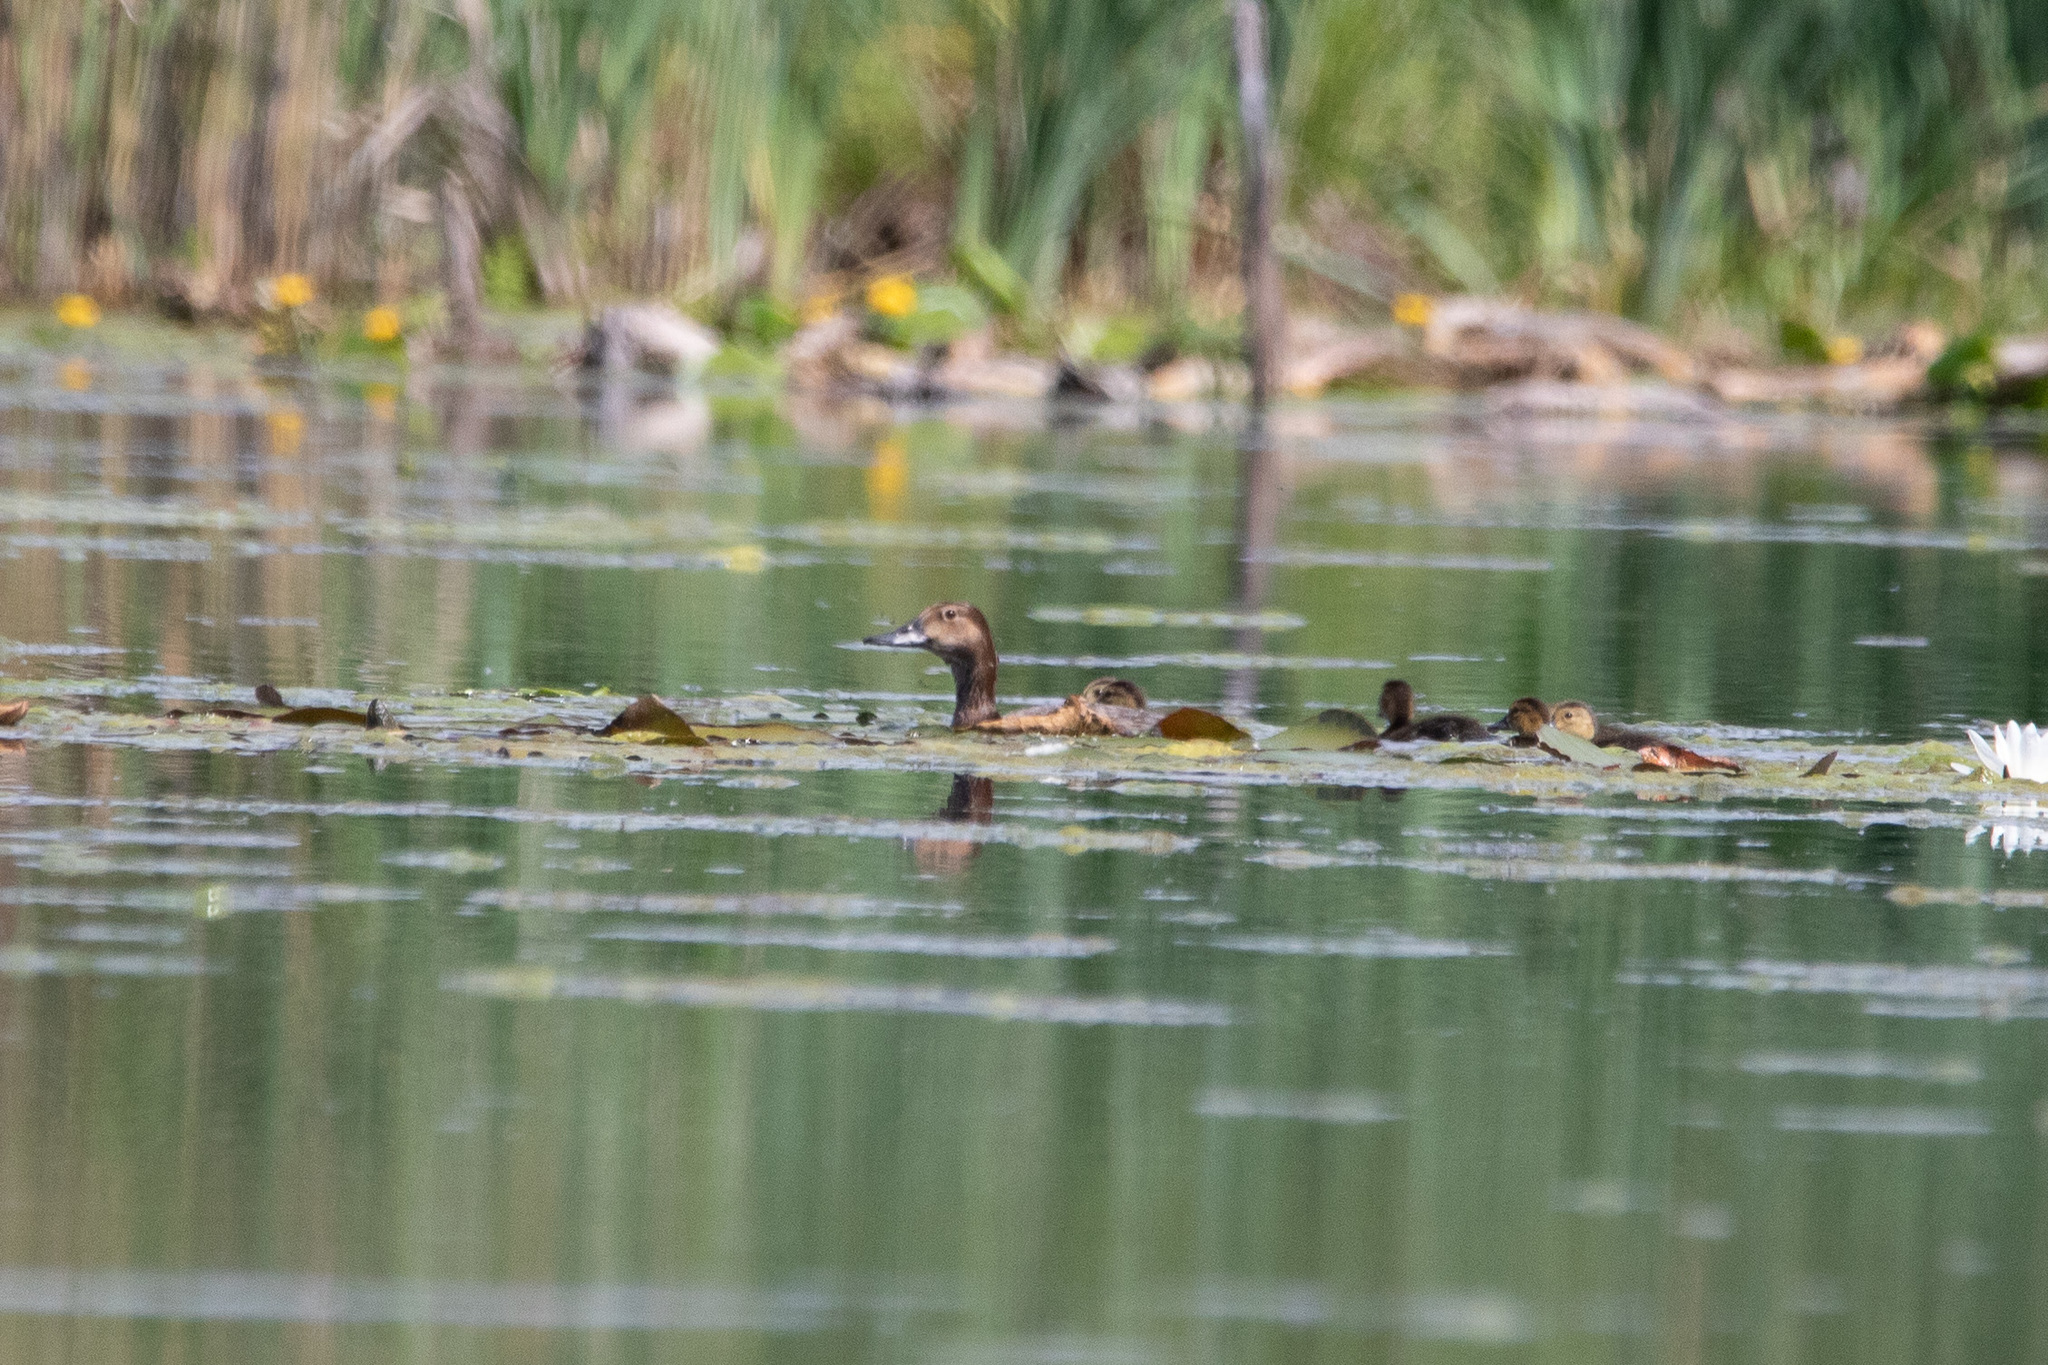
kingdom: Animalia
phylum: Chordata
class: Aves
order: Anseriformes
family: Anatidae
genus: Aythya
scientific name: Aythya ferina
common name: Common pochard
